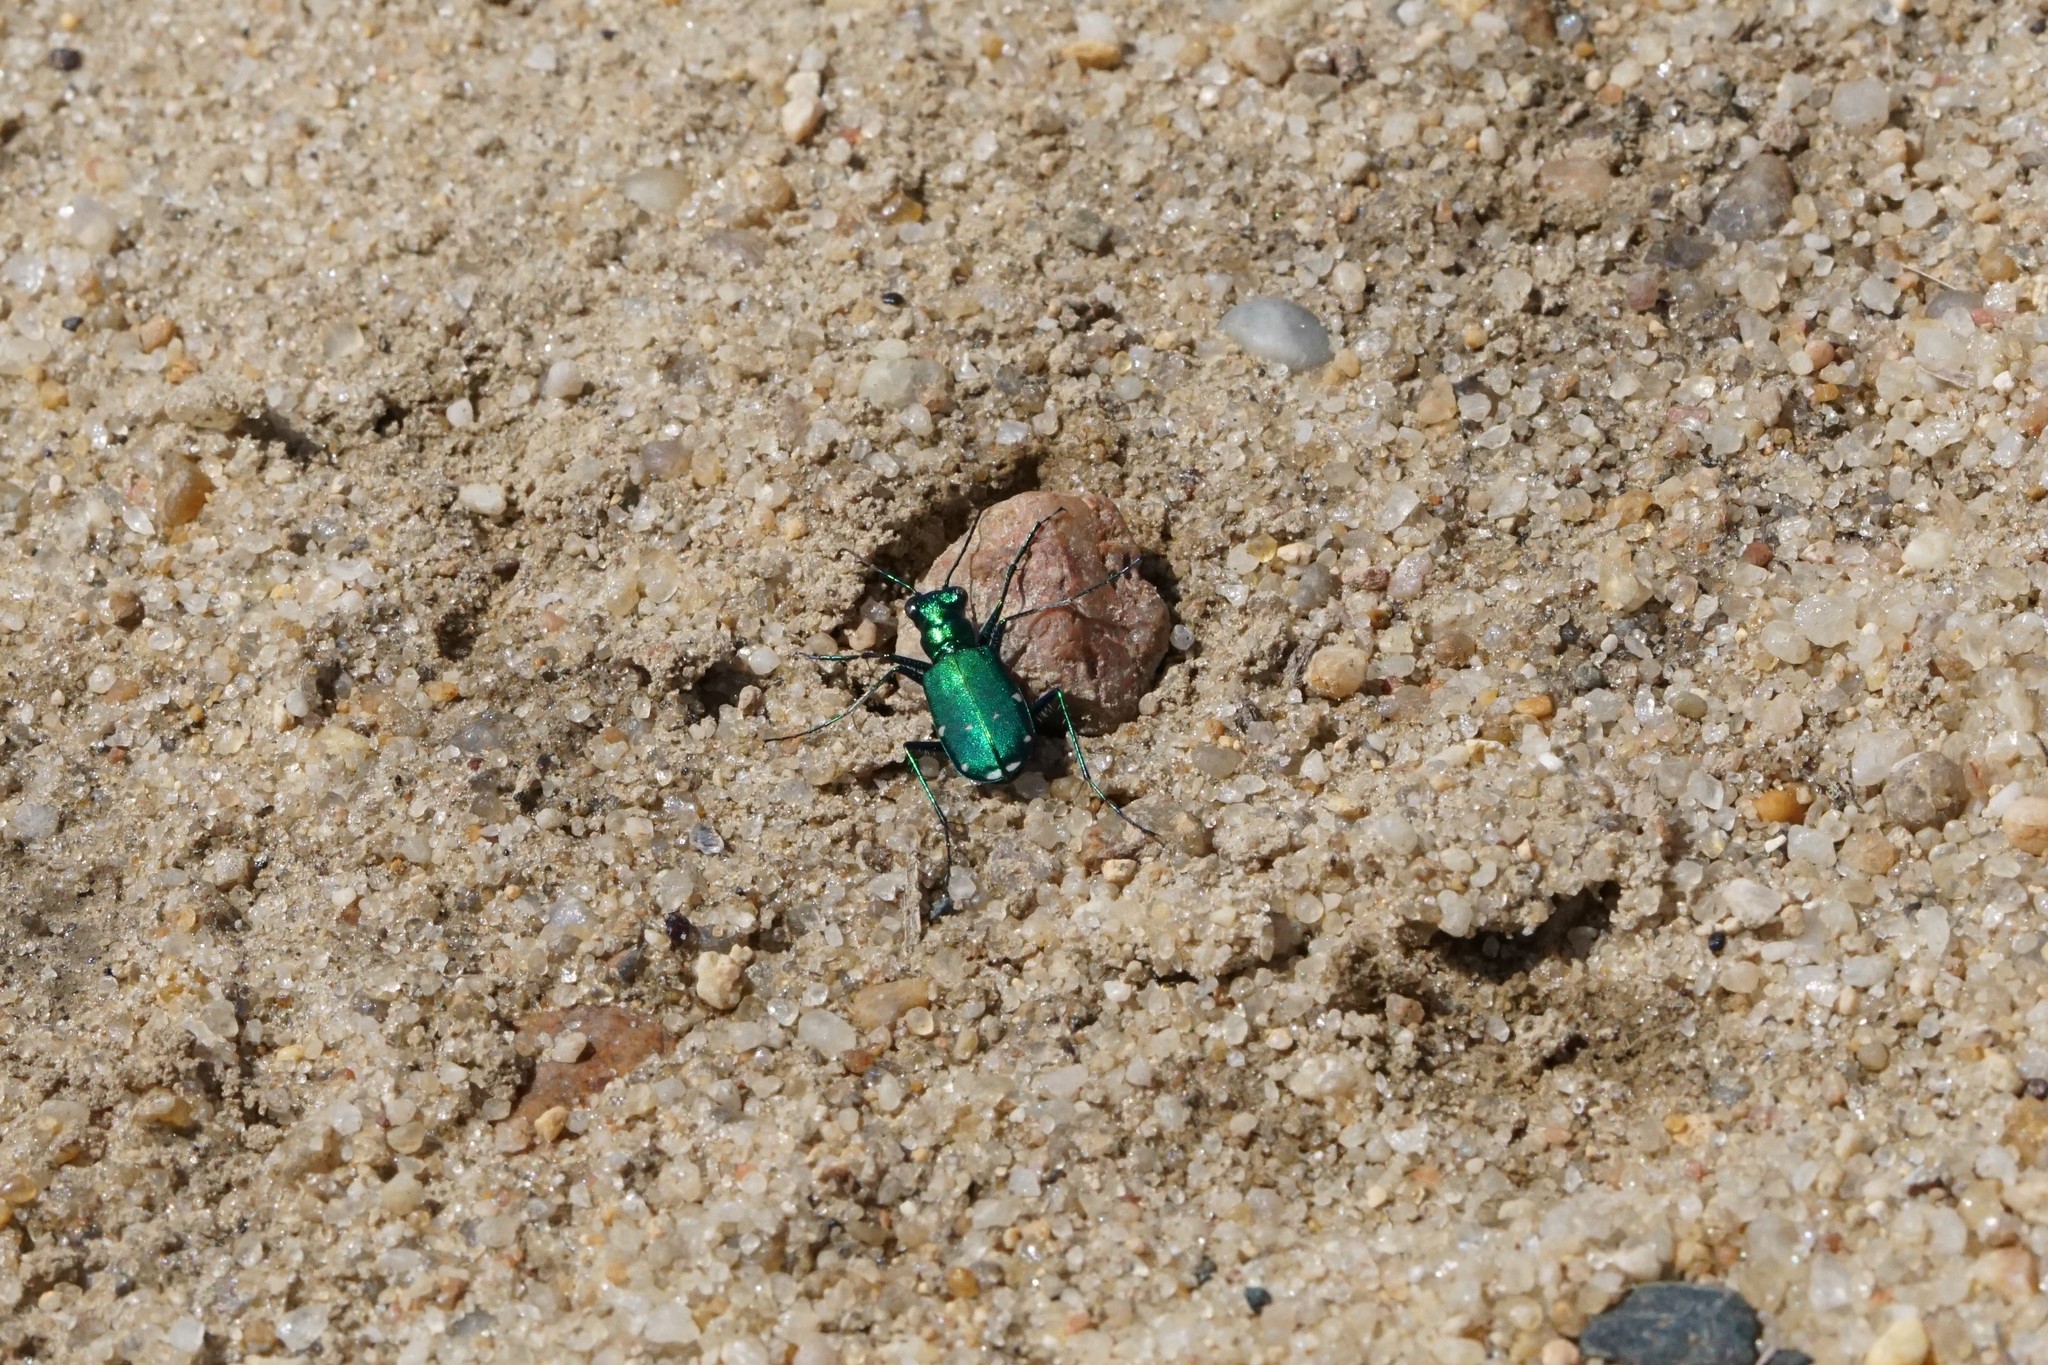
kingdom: Animalia
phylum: Arthropoda
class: Insecta
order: Coleoptera
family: Carabidae
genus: Cicindela
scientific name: Cicindela sexguttata
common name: Six-spotted tiger beetle
